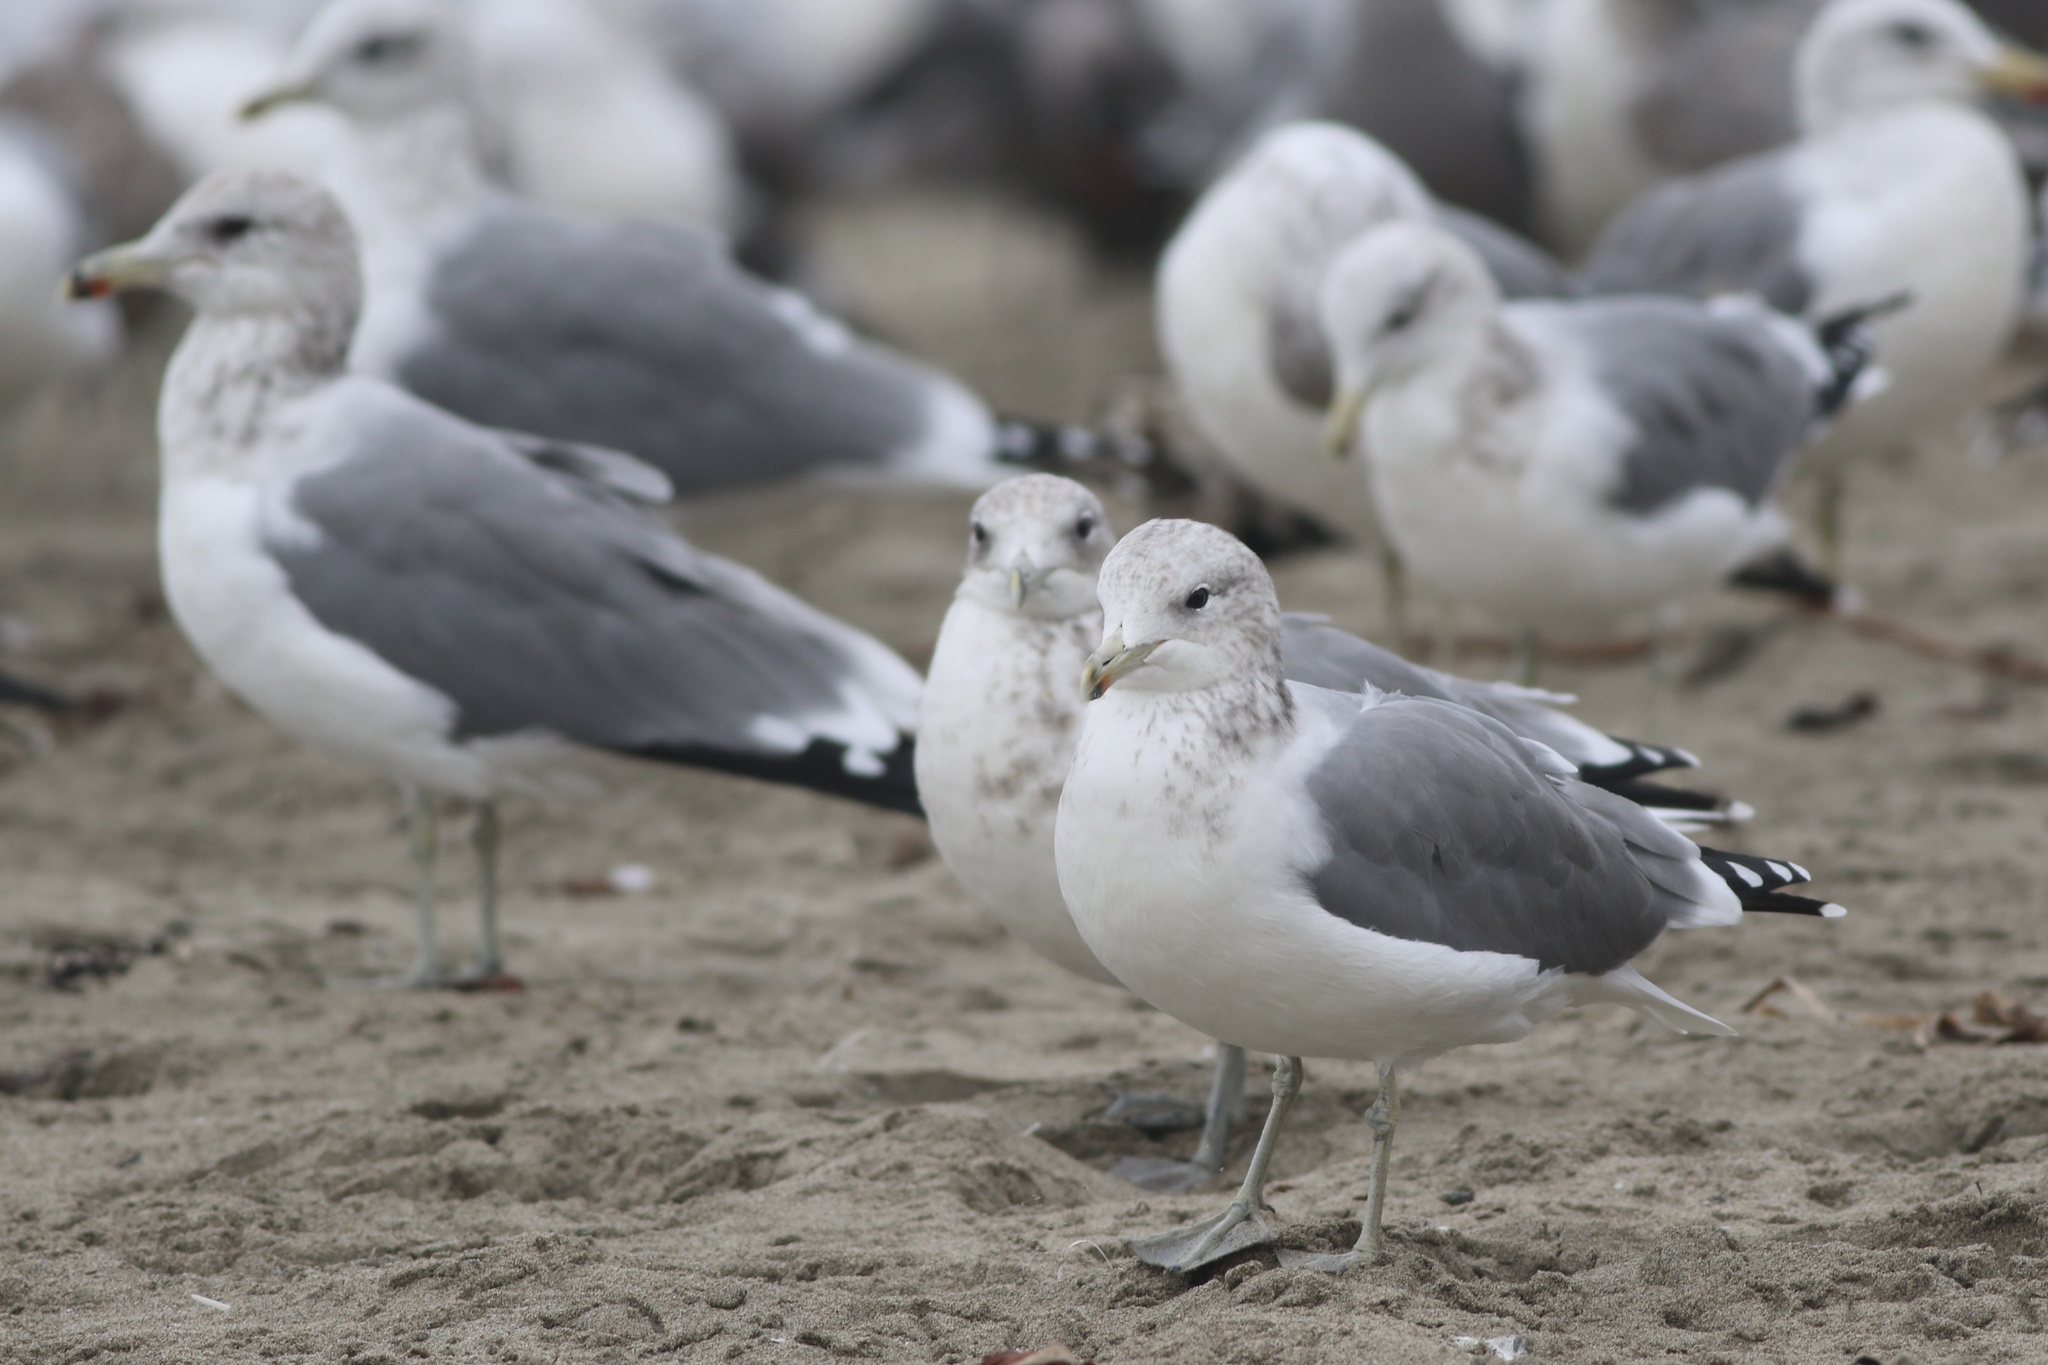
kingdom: Animalia
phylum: Chordata
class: Aves
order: Charadriiformes
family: Laridae
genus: Larus
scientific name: Larus californicus
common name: California gull
